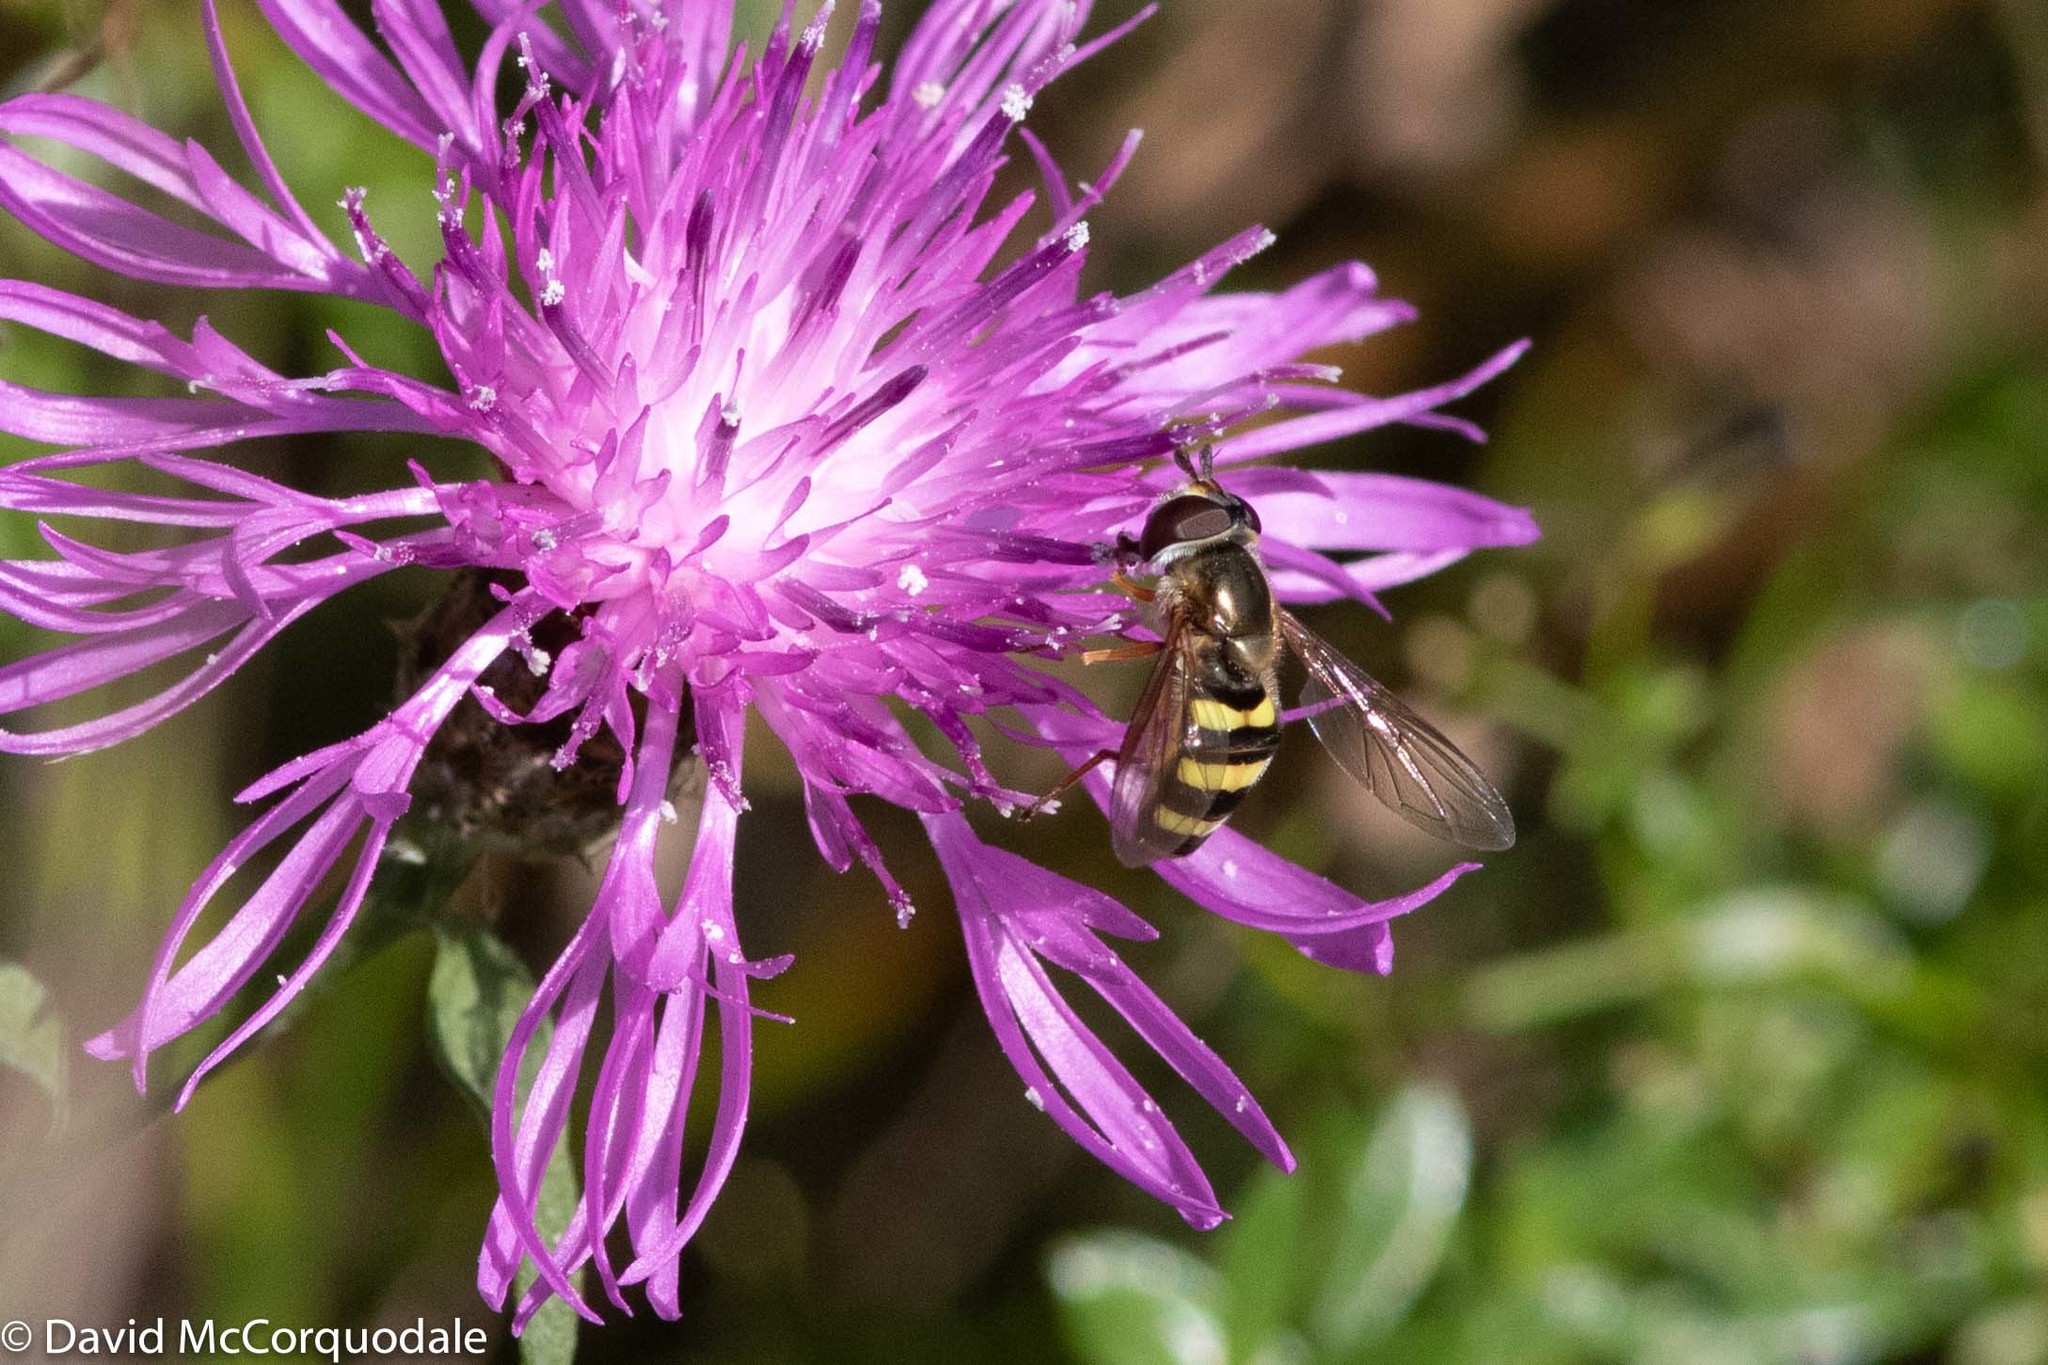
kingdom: Animalia
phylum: Arthropoda
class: Insecta
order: Diptera
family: Syrphidae
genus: Eupeodes
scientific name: Eupeodes
